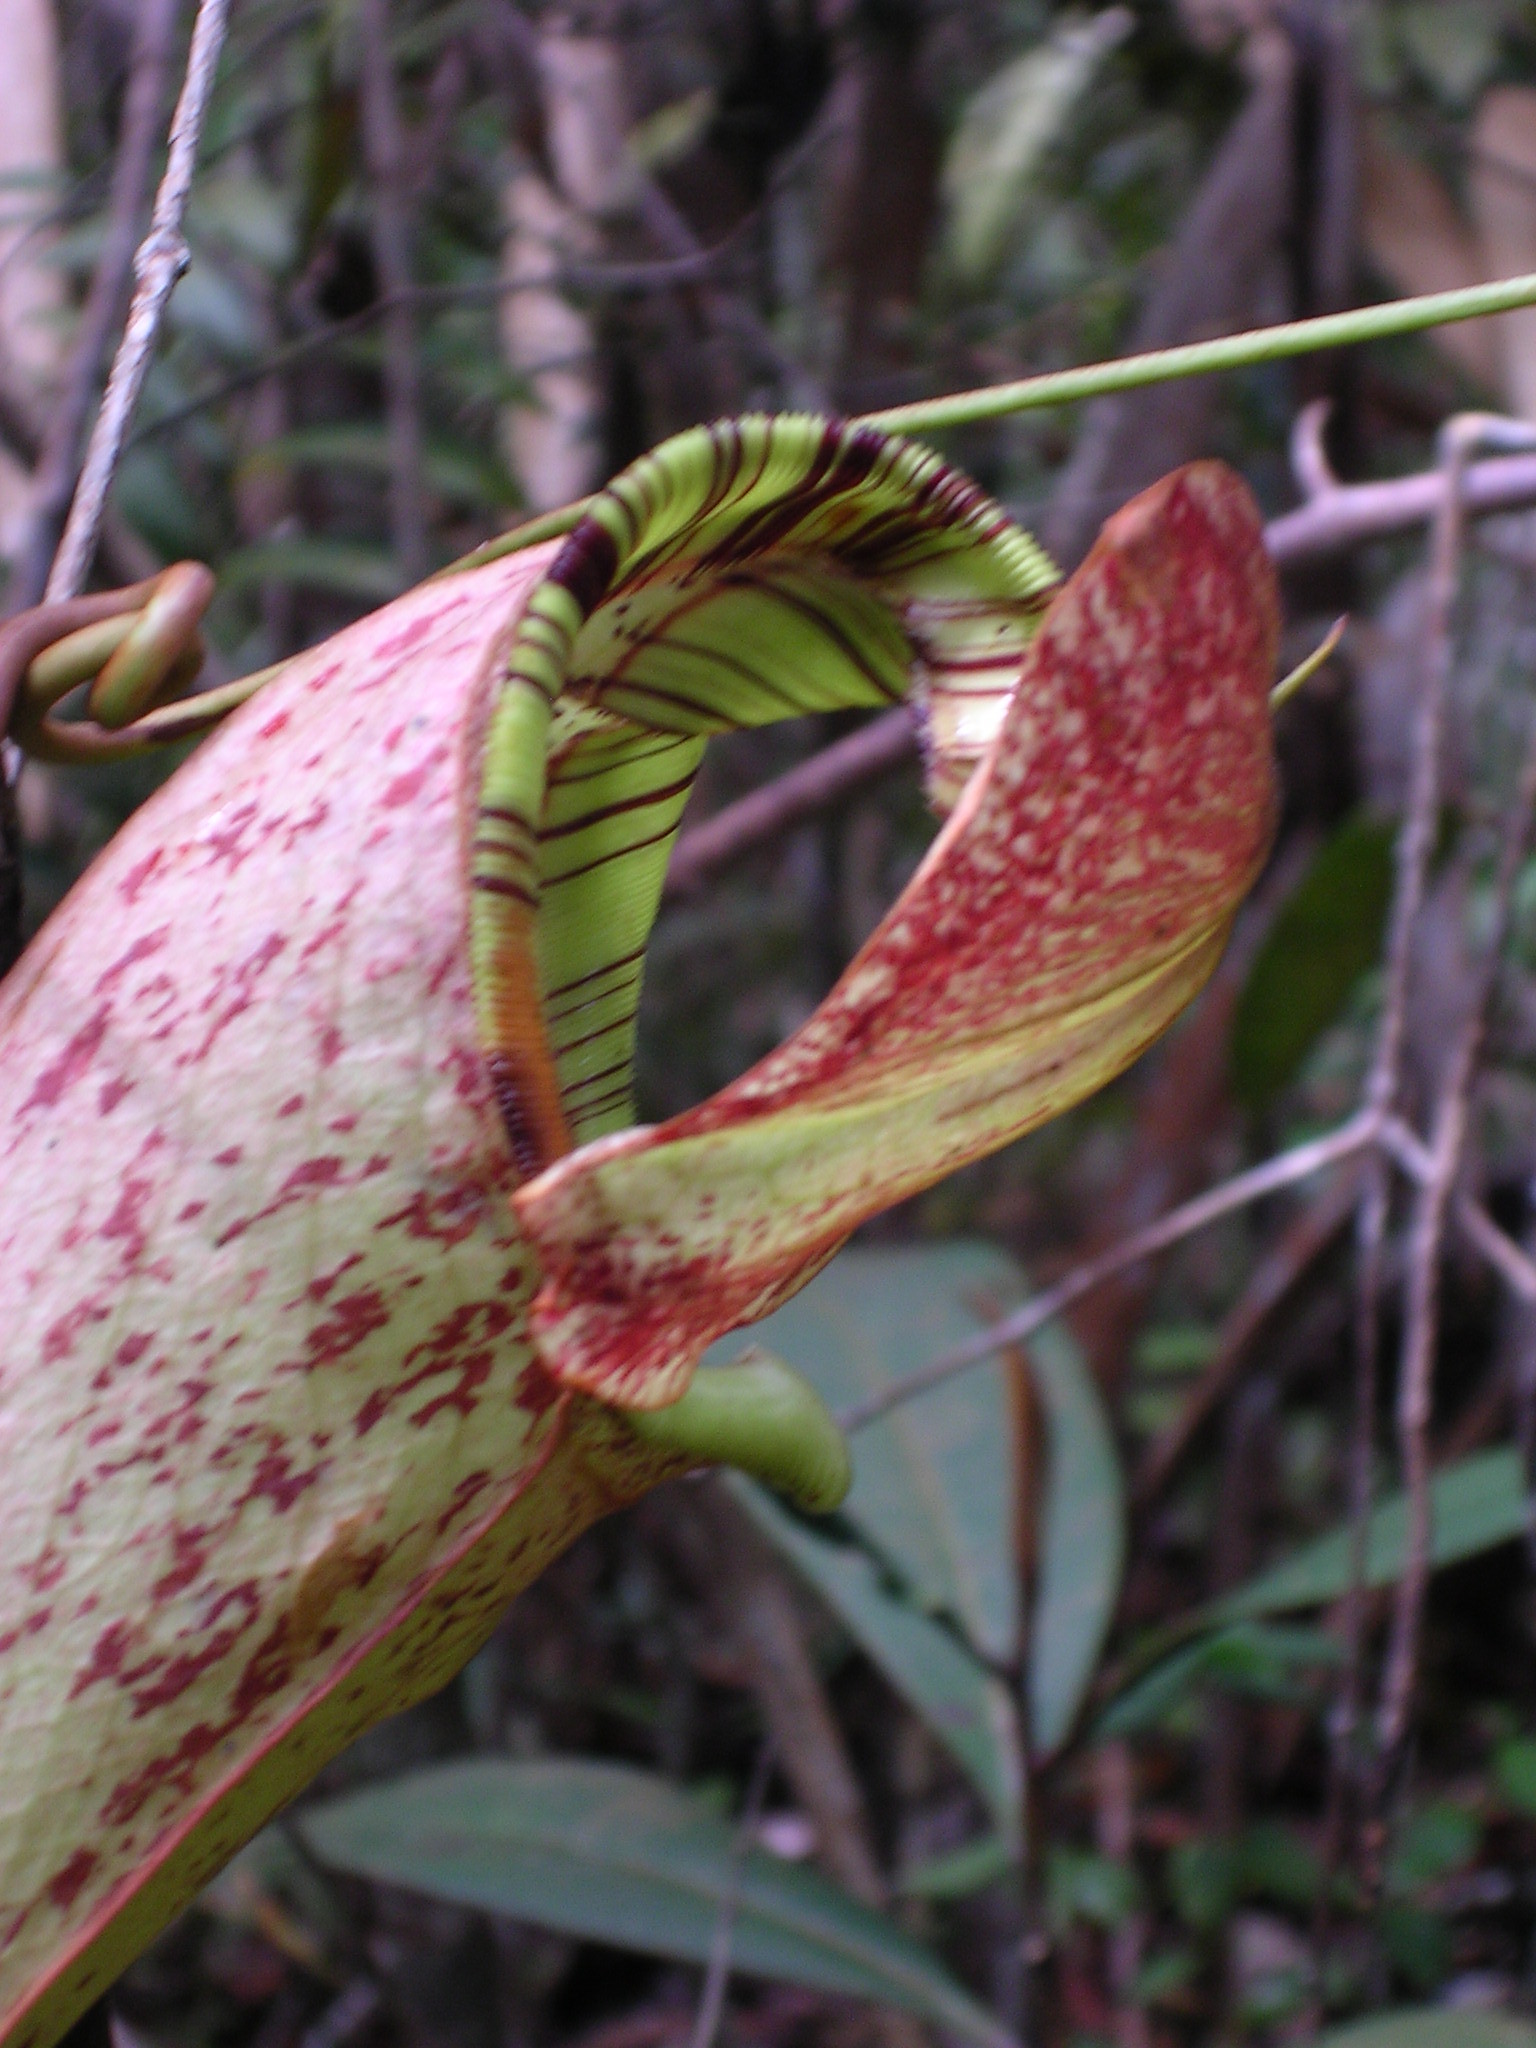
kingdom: Plantae
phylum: Tracheophyta
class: Magnoliopsida
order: Caryophyllales
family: Nepenthaceae
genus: Nepenthes
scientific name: Nepenthes rafflesiana
